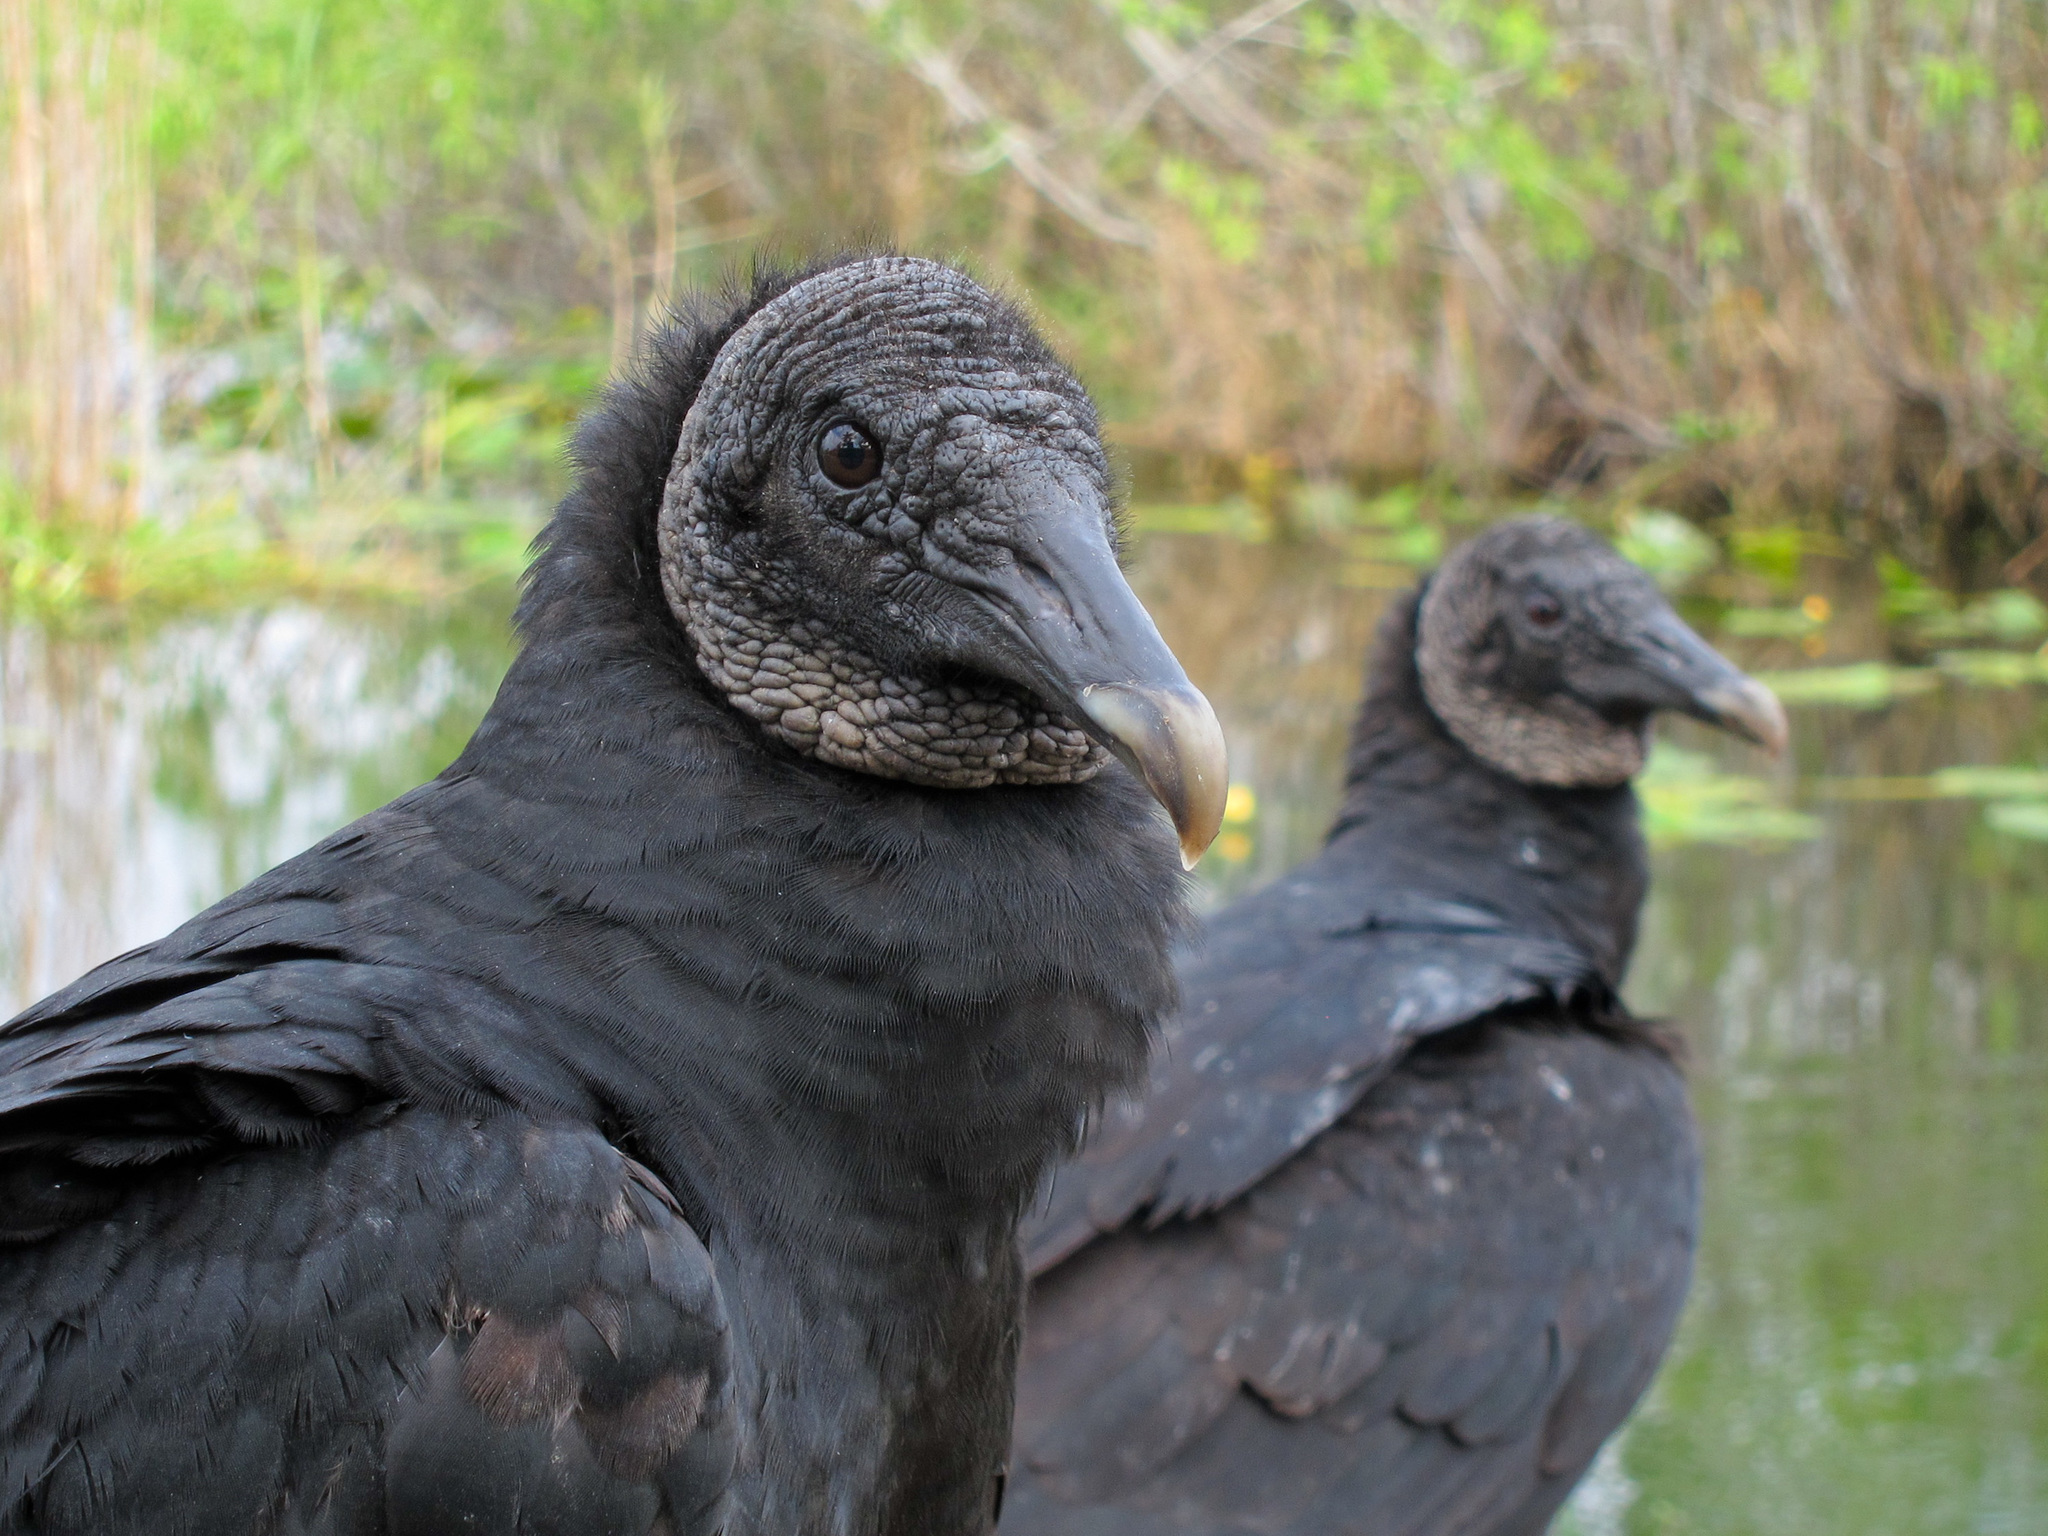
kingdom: Animalia
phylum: Chordata
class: Aves
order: Accipitriformes
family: Cathartidae
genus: Coragyps
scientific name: Coragyps atratus
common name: Black vulture
